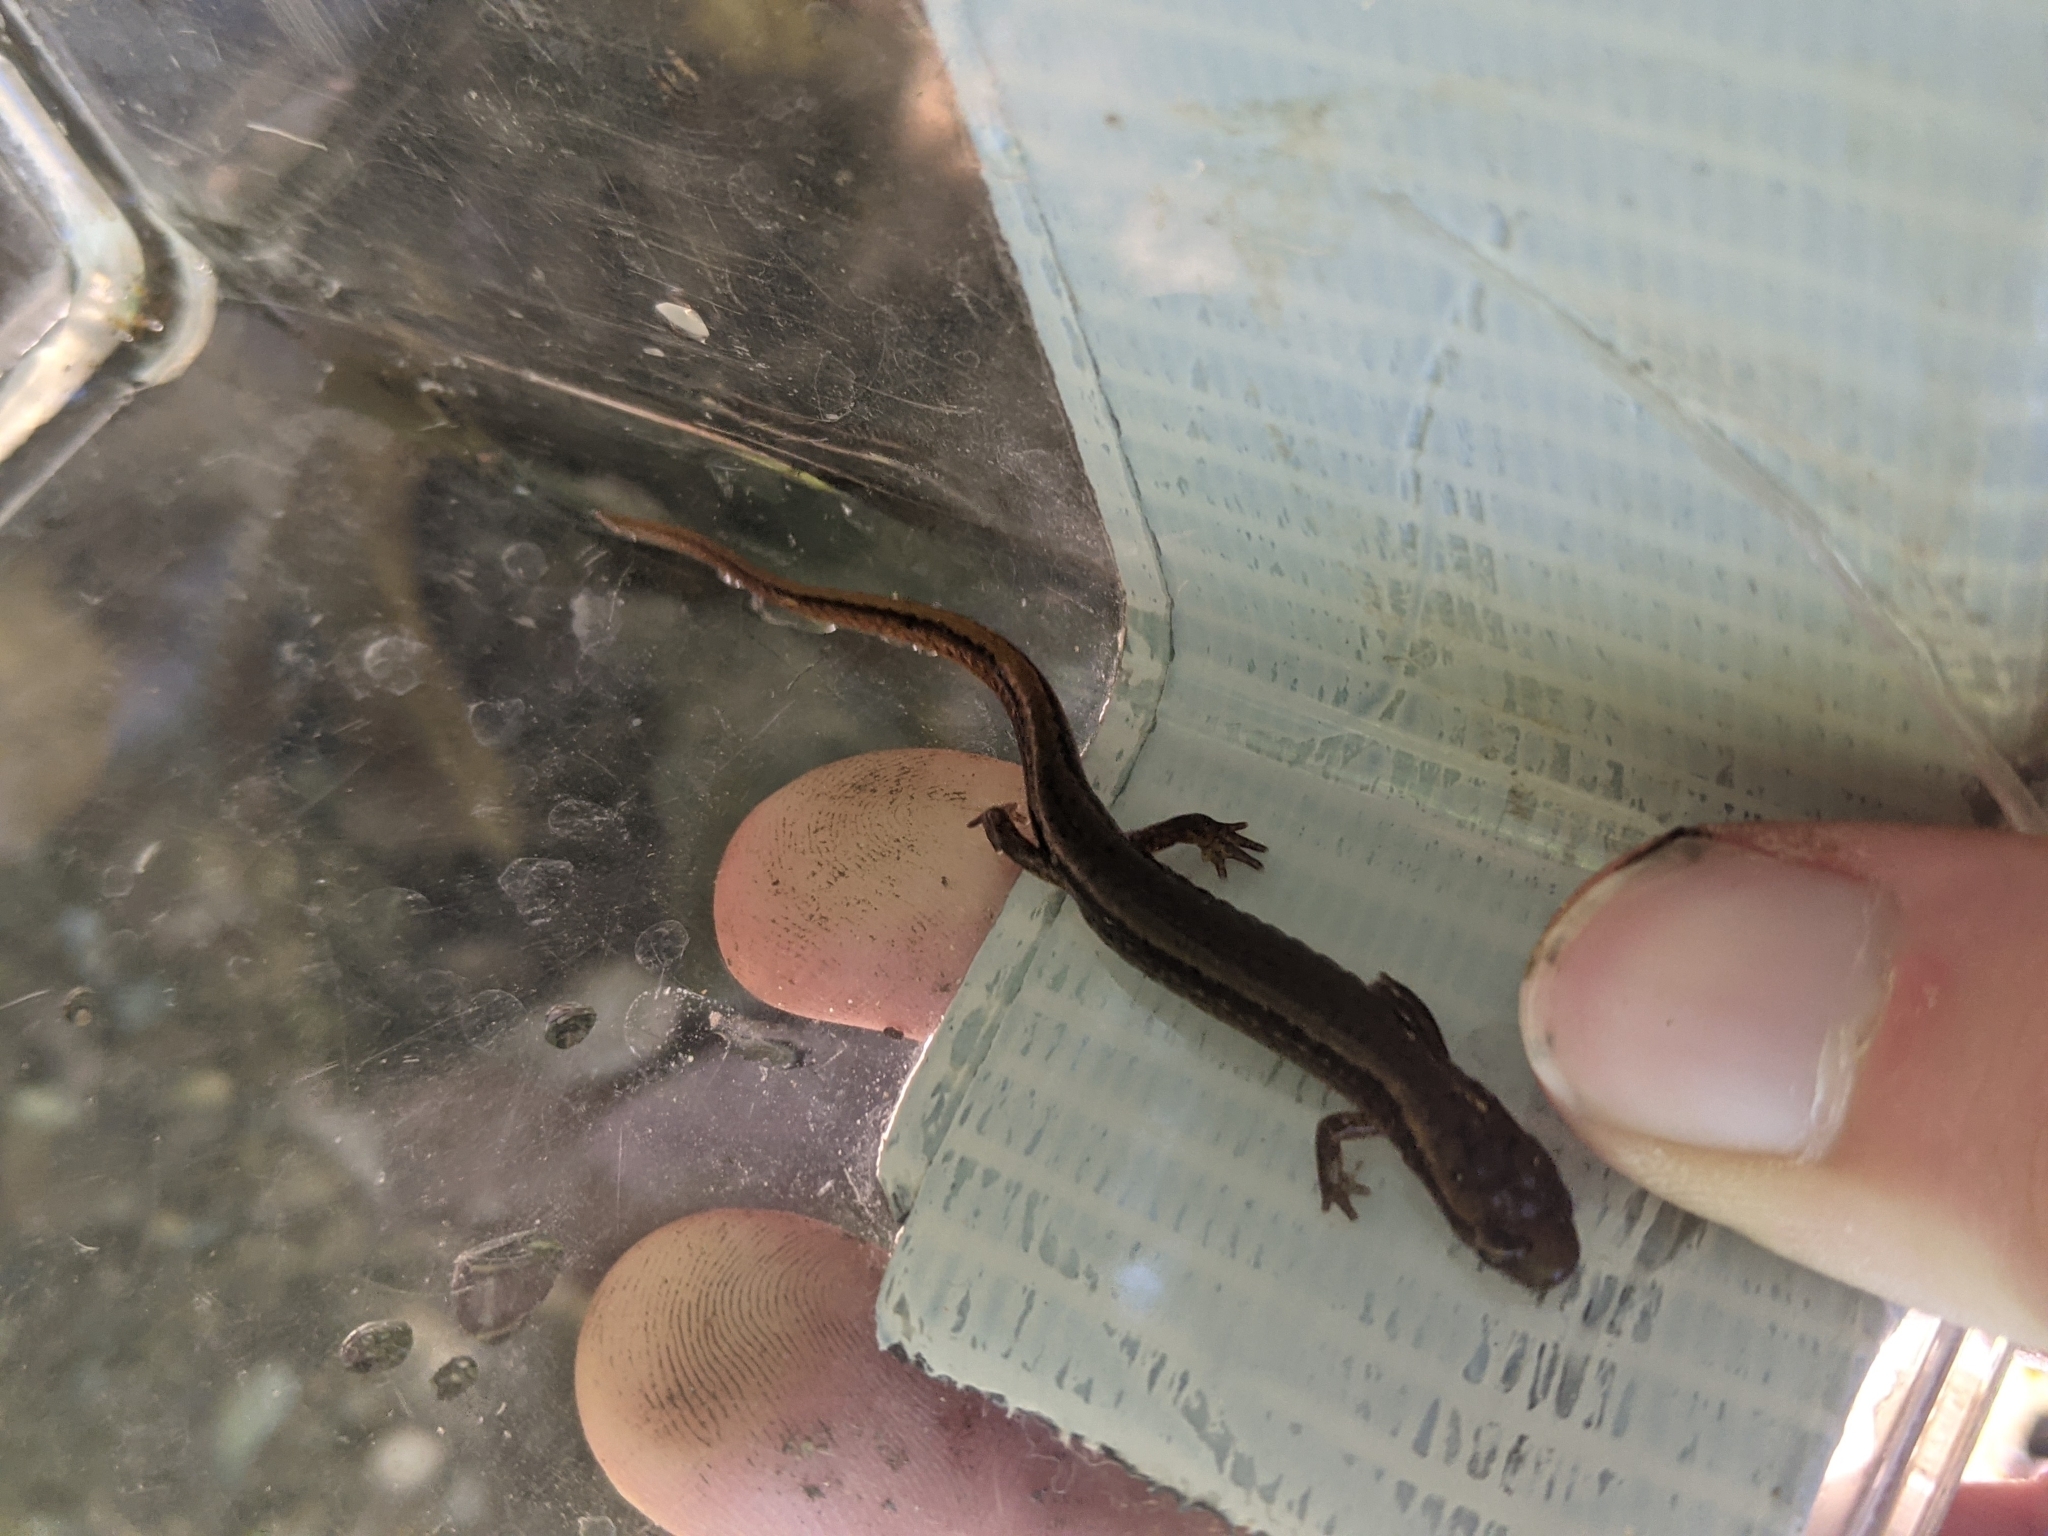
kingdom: Animalia
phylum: Chordata
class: Amphibia
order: Caudata
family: Plethodontidae
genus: Eurycea
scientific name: Eurycea bislineata
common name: Northern two-lined salamander
